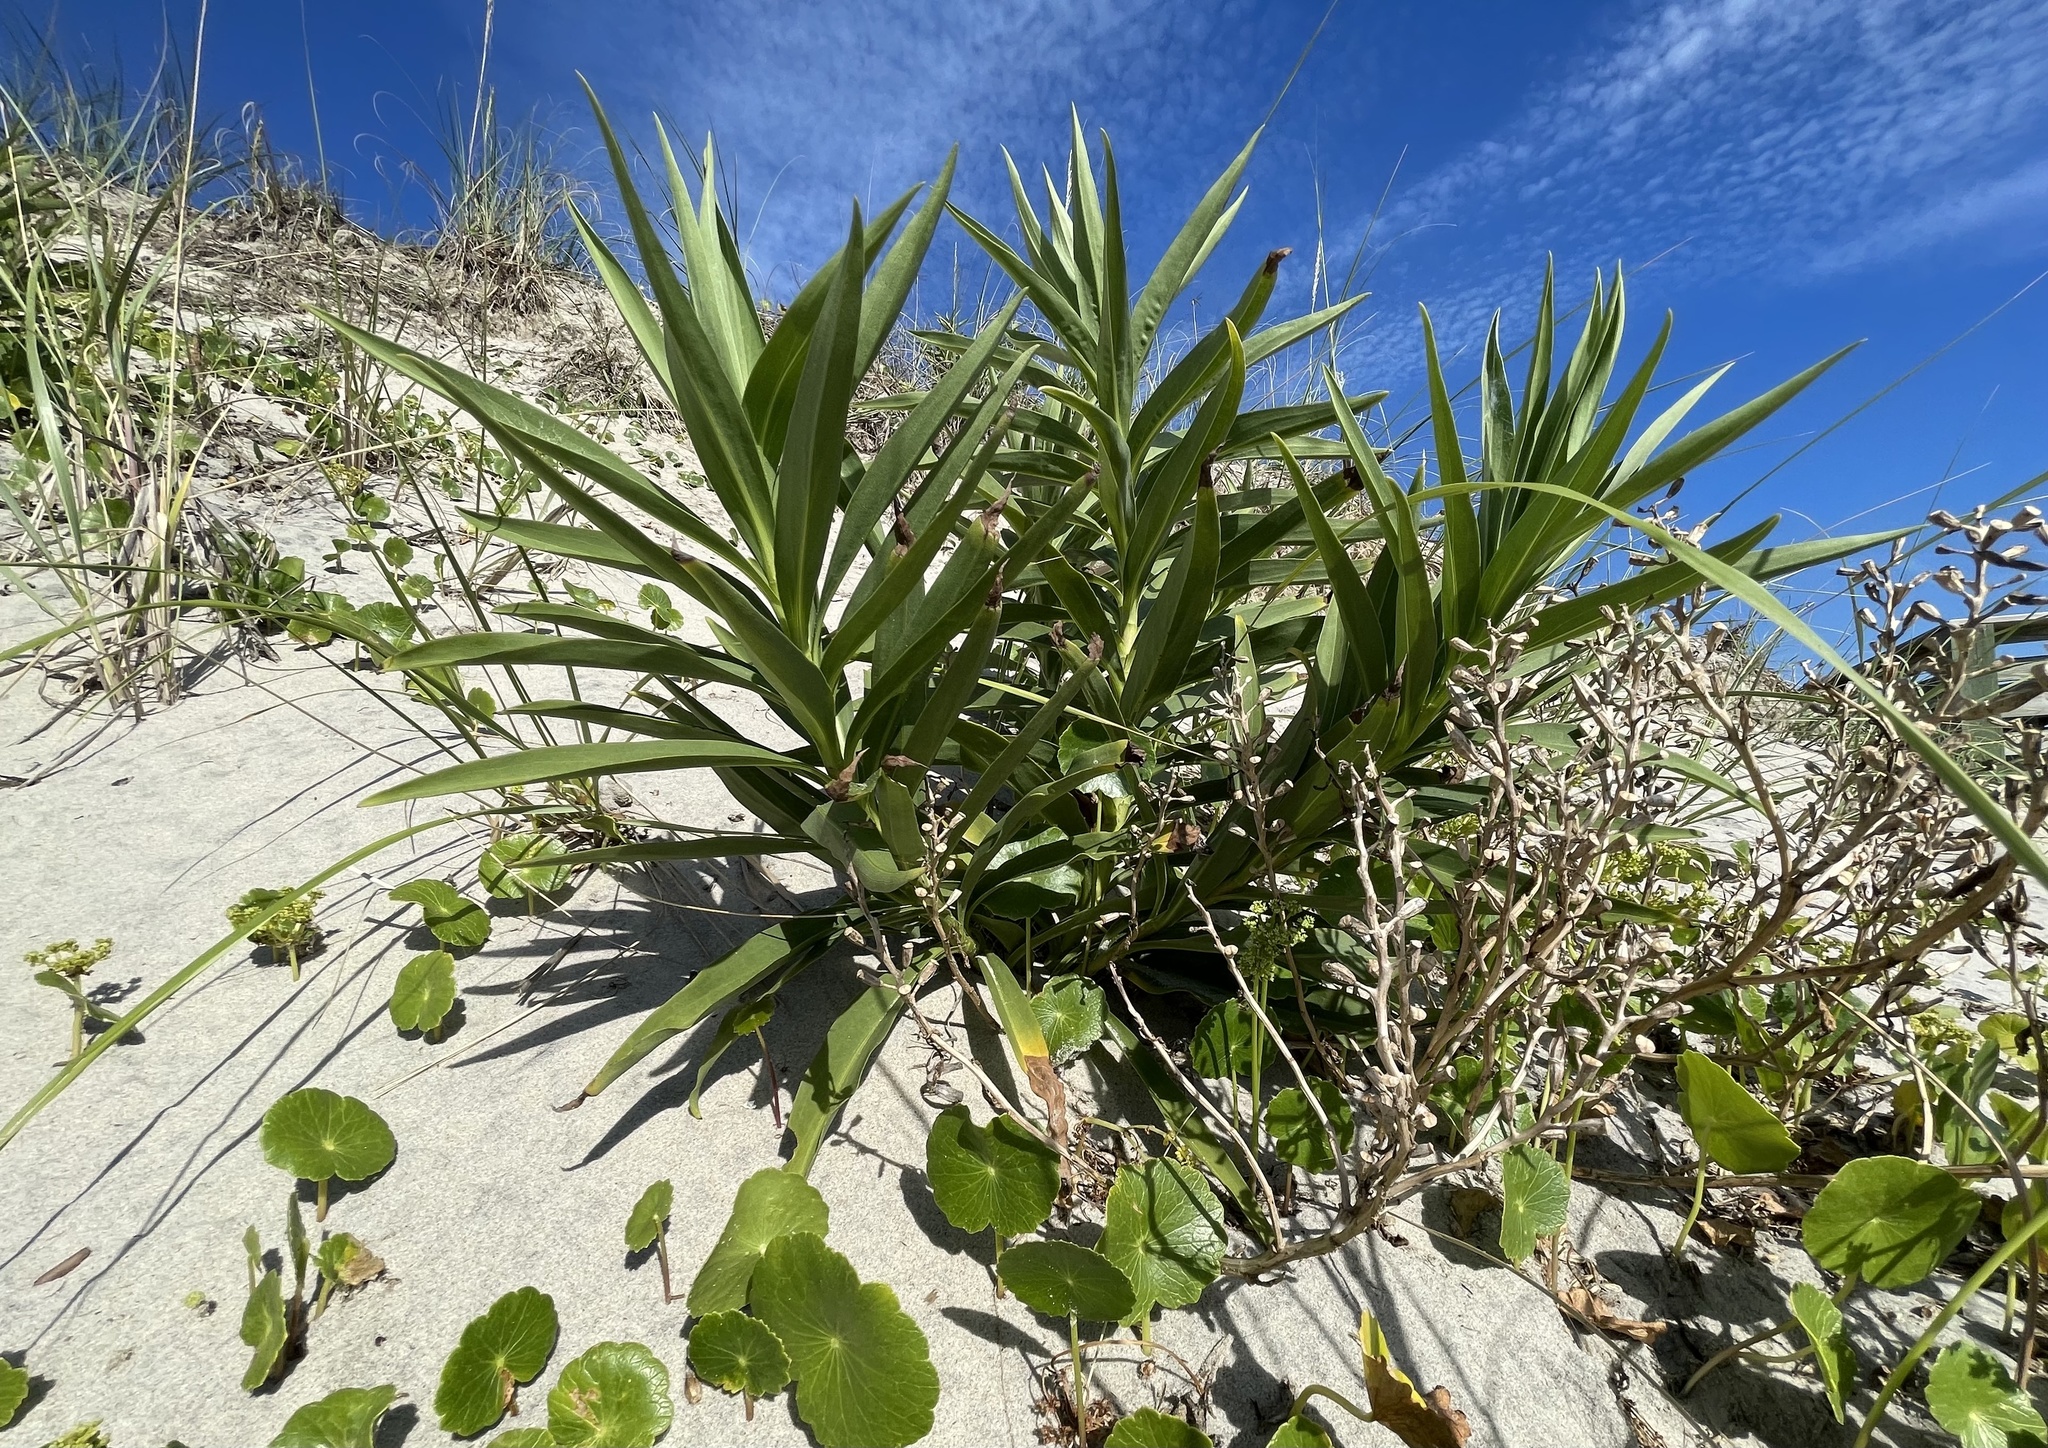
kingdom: Plantae
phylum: Tracheophyta
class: Magnoliopsida
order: Asterales
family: Asteraceae
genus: Solidago
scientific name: Solidago mexicana
